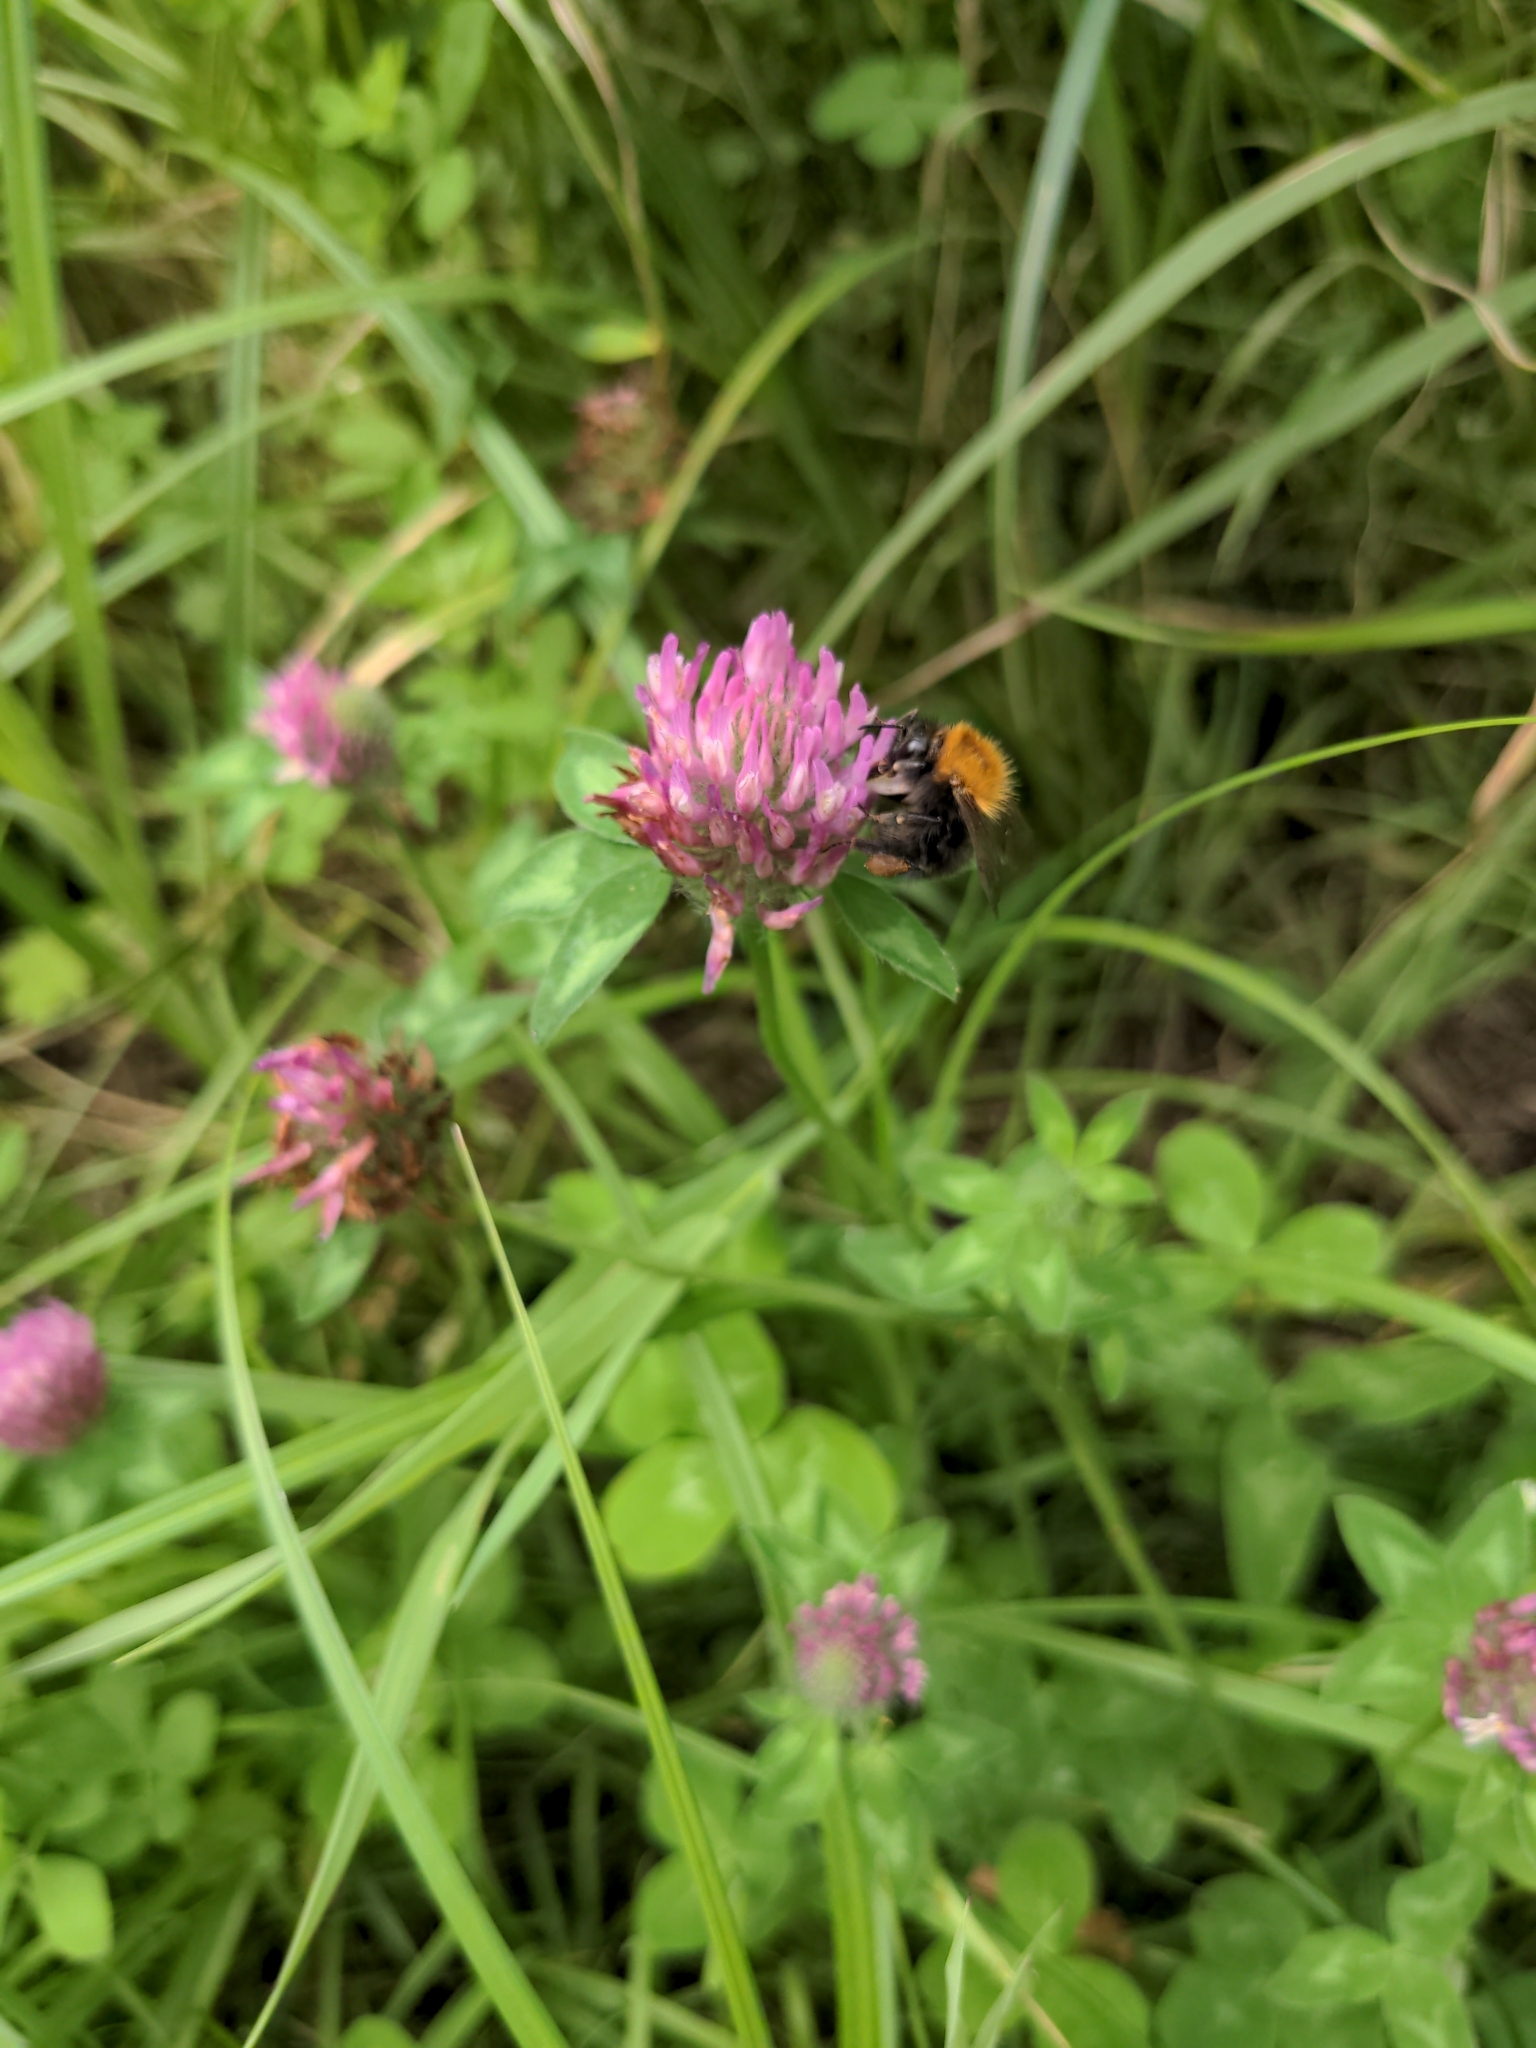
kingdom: Animalia
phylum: Arthropoda
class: Insecta
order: Hymenoptera
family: Apidae
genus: Bombus
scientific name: Bombus pascuorum
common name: Common carder bee
